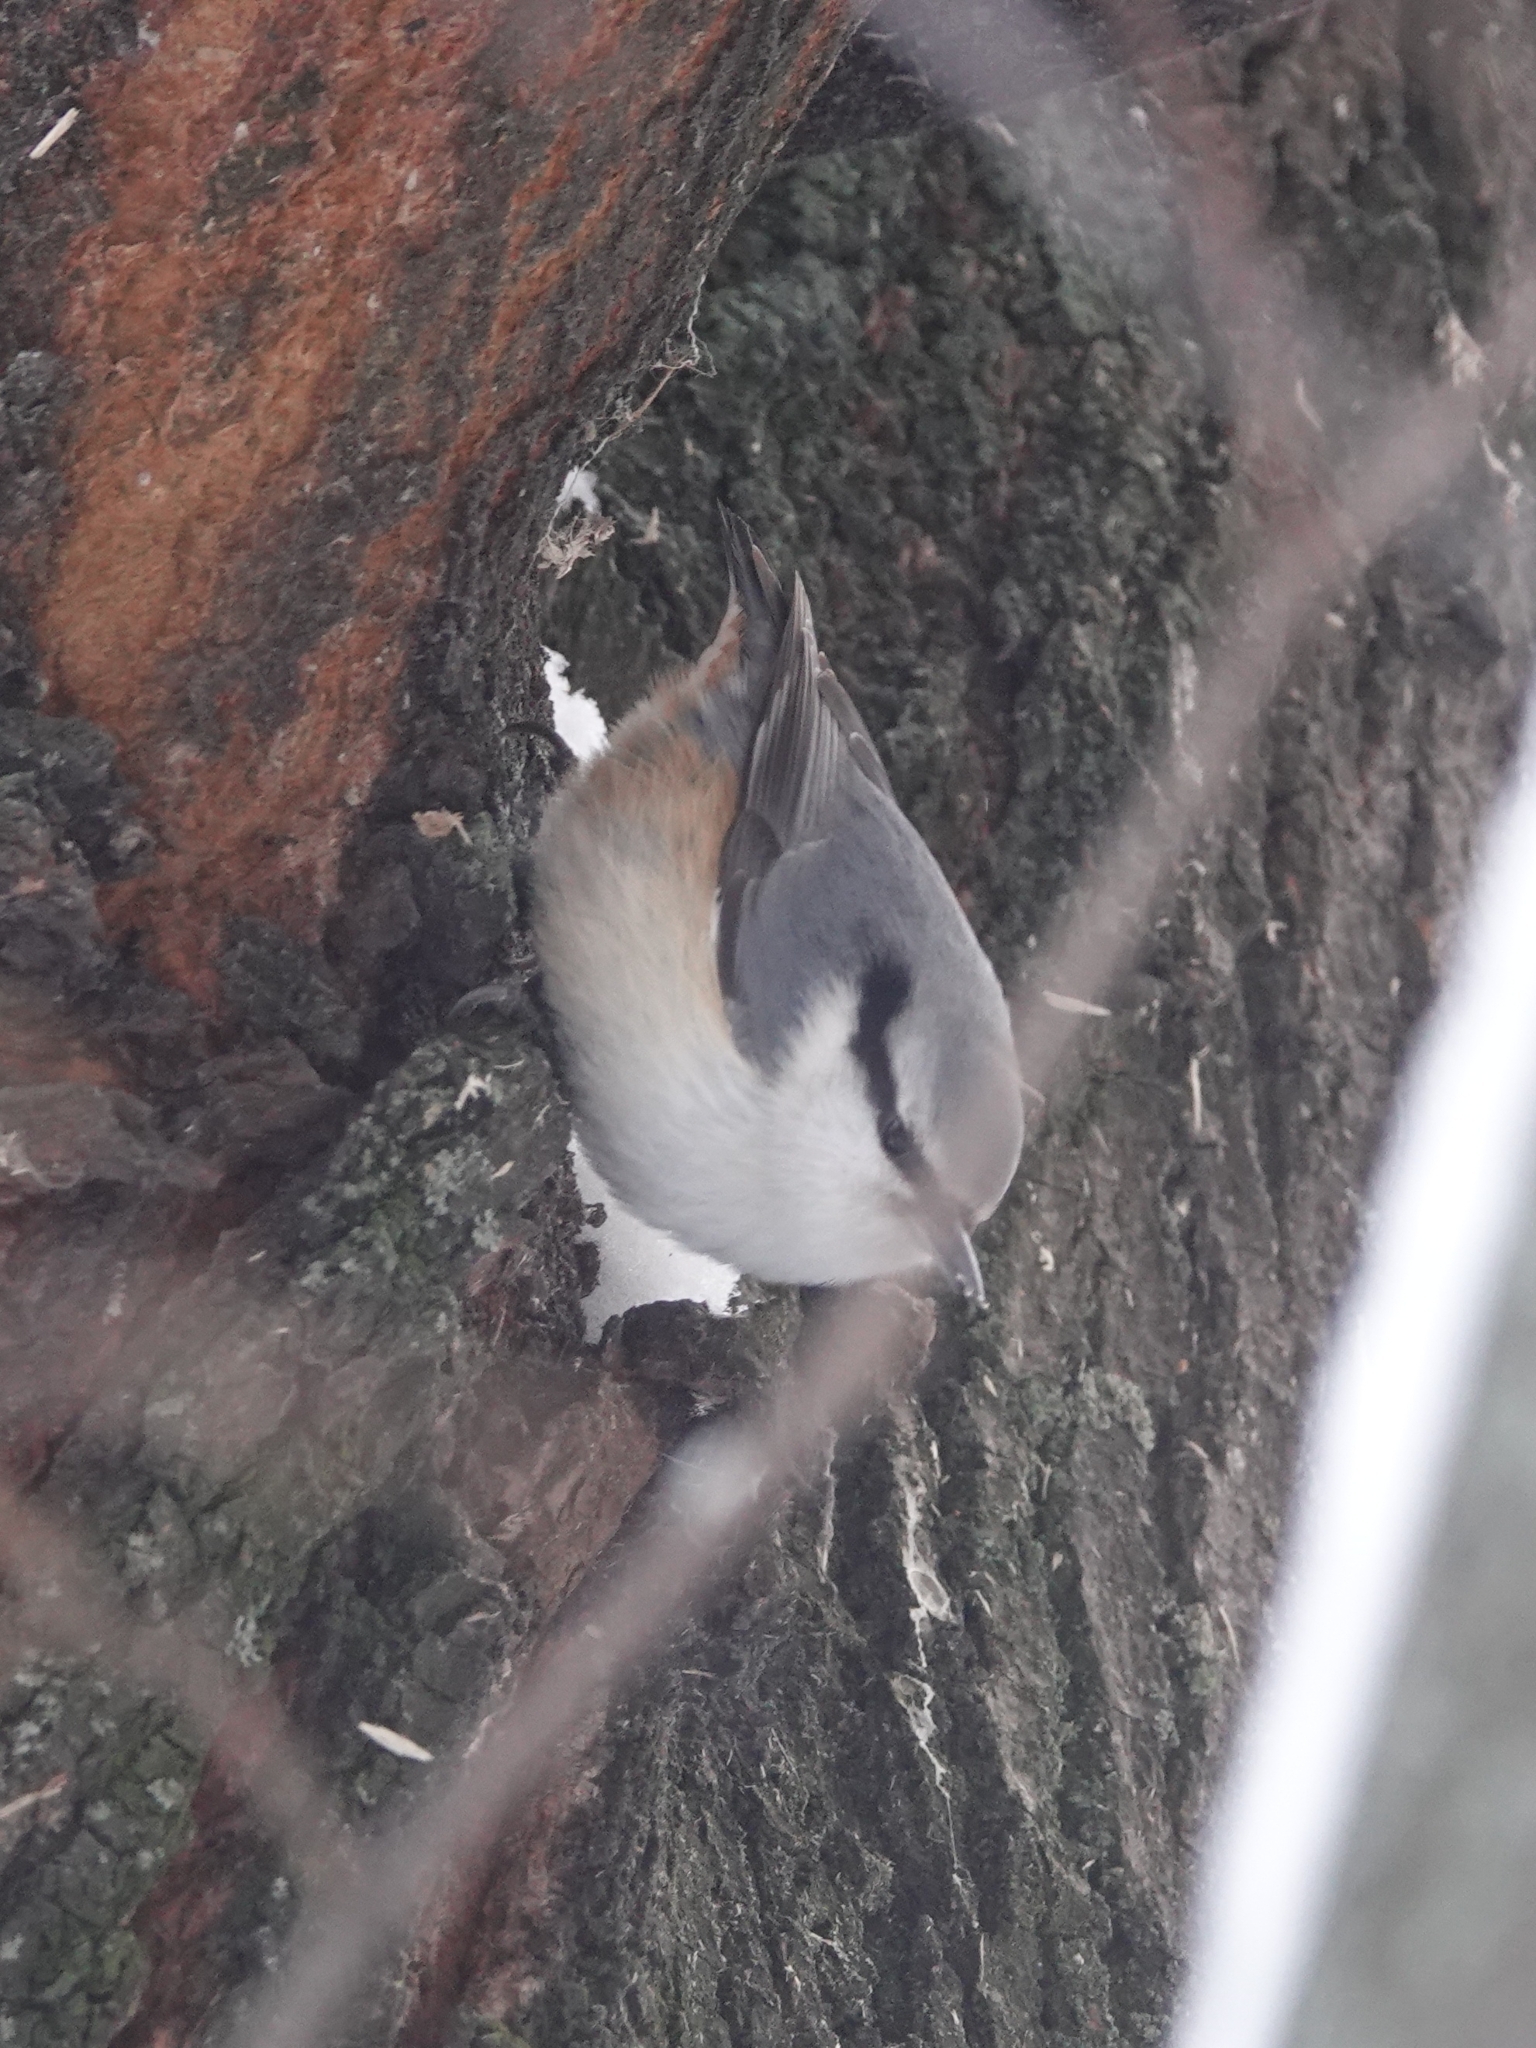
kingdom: Animalia
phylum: Chordata
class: Aves
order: Passeriformes
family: Sittidae
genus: Sitta
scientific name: Sitta europaea
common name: Eurasian nuthatch
